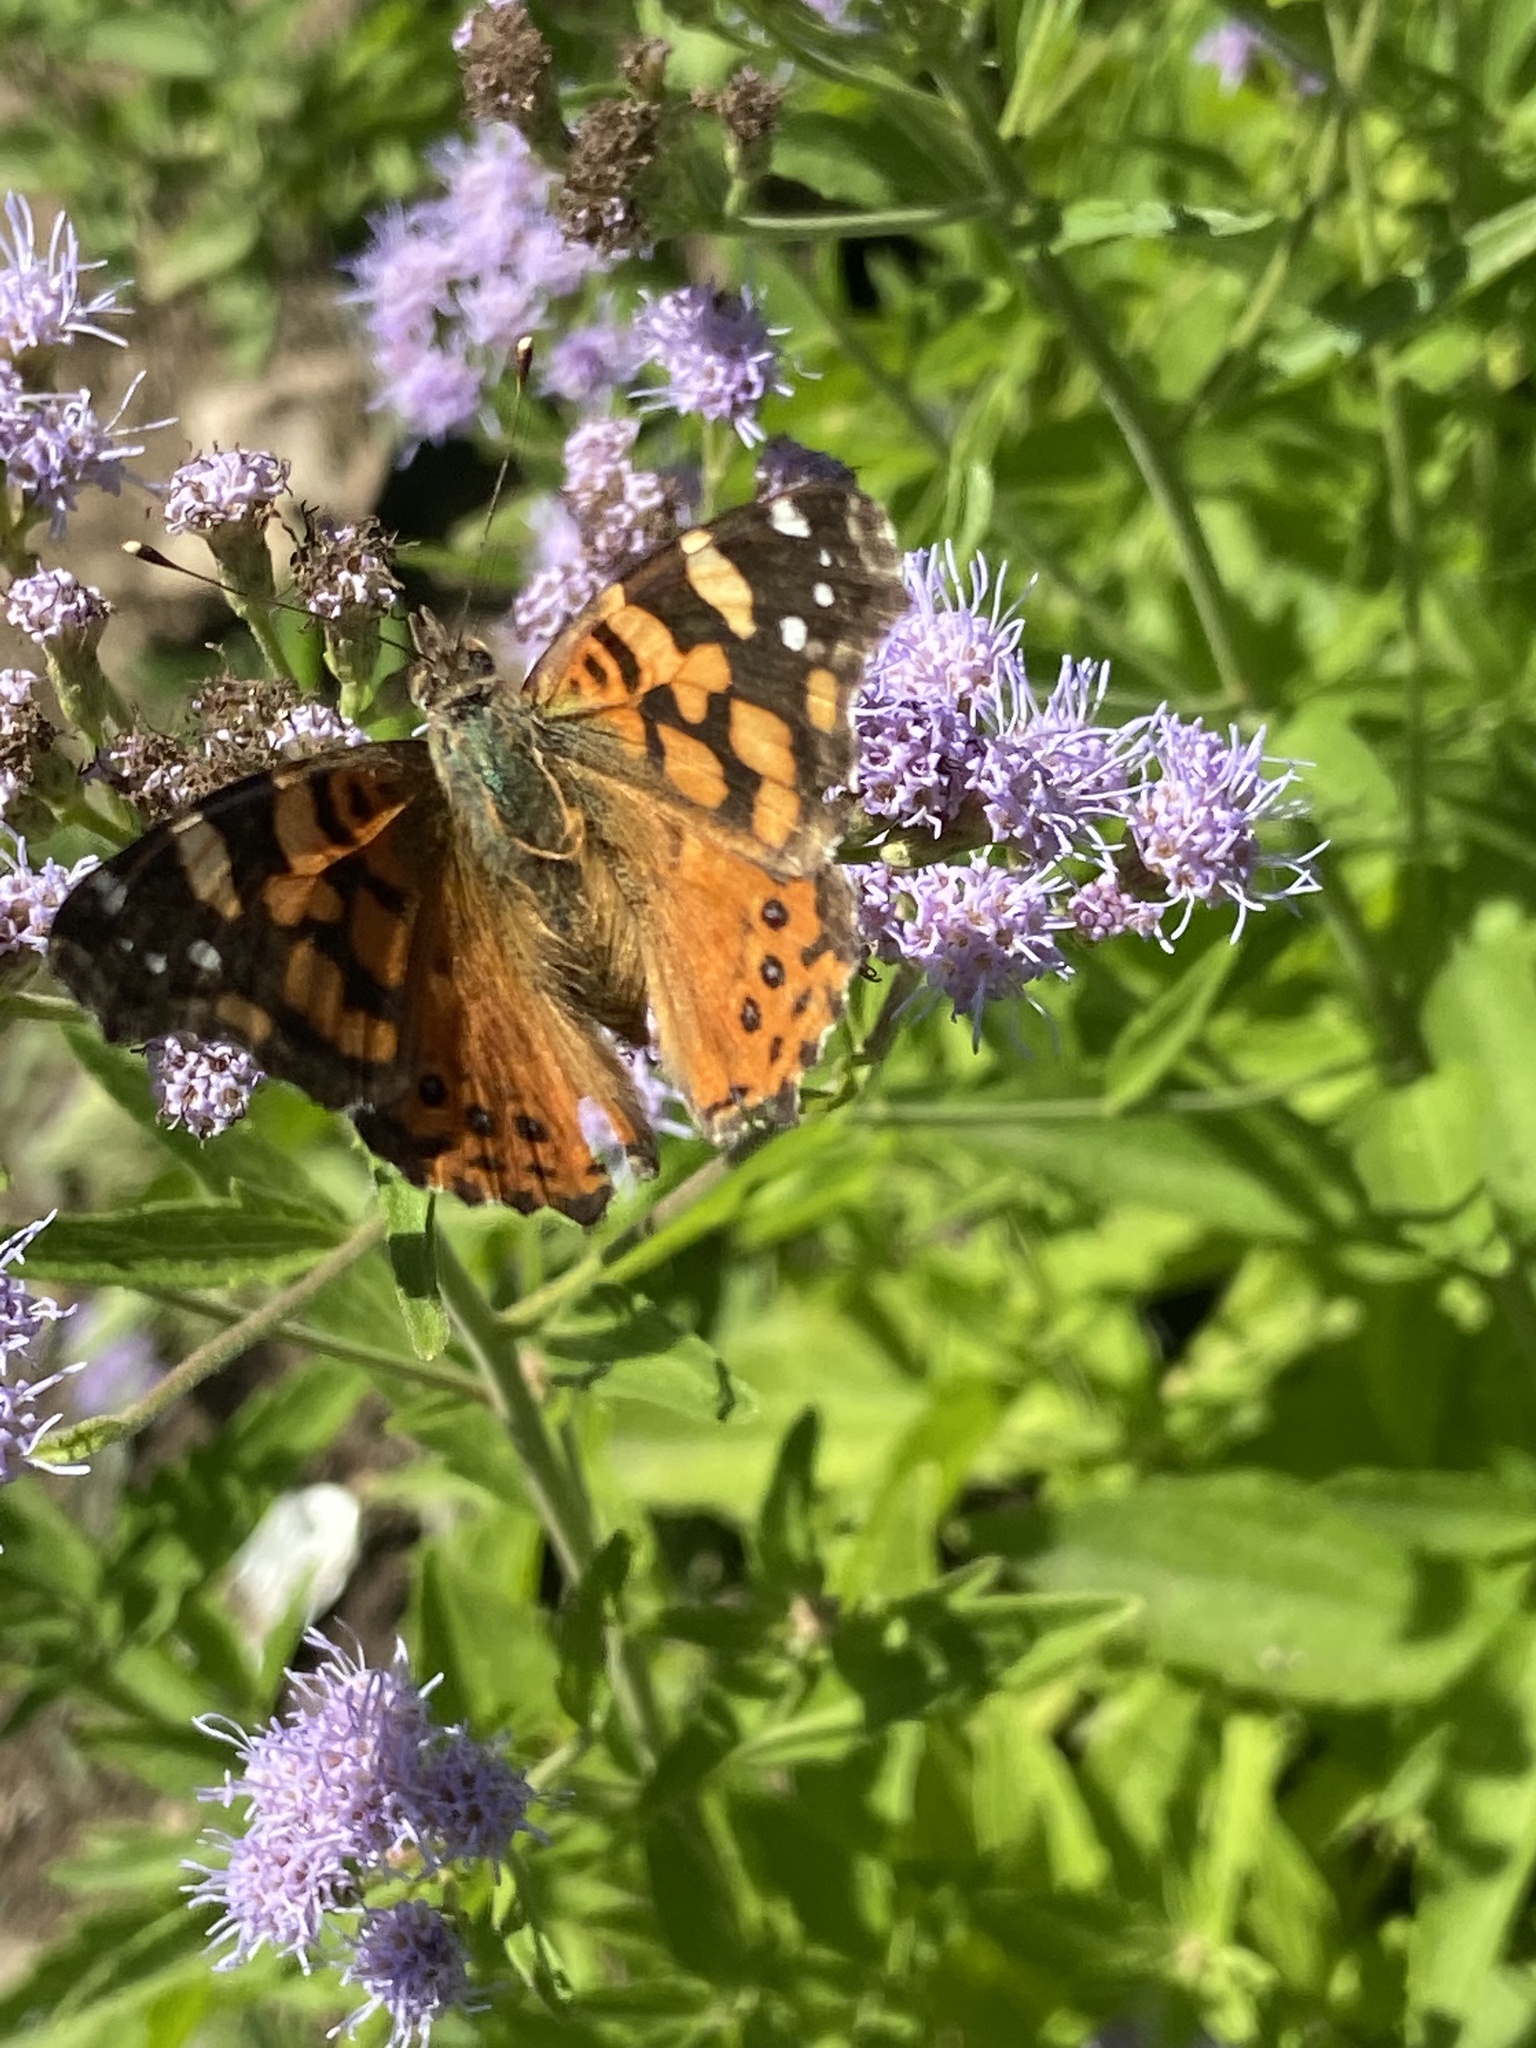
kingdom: Animalia
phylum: Arthropoda
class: Insecta
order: Lepidoptera
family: Nymphalidae
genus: Vanessa
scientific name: Vanessa carye
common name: Subtropical lady
